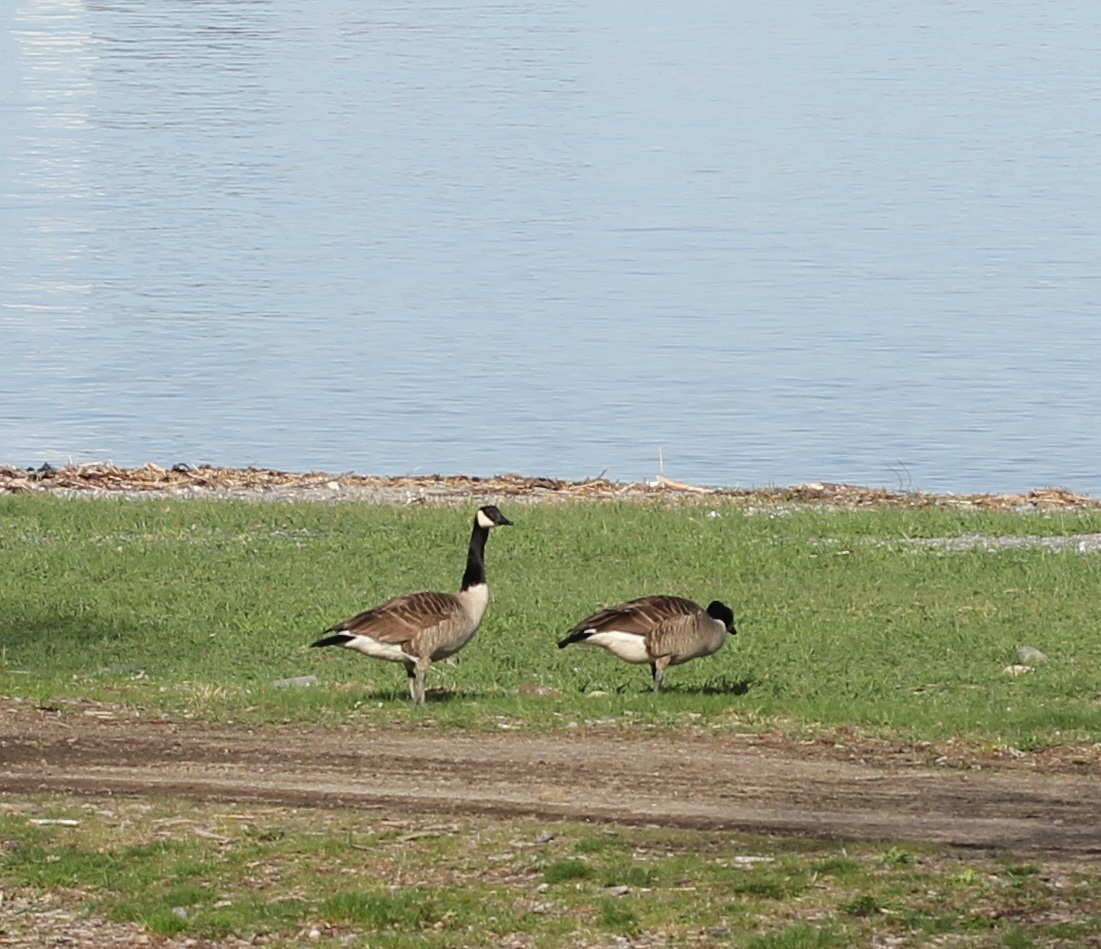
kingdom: Animalia
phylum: Chordata
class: Aves
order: Anseriformes
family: Anatidae
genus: Branta
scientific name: Branta canadensis
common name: Canada goose
